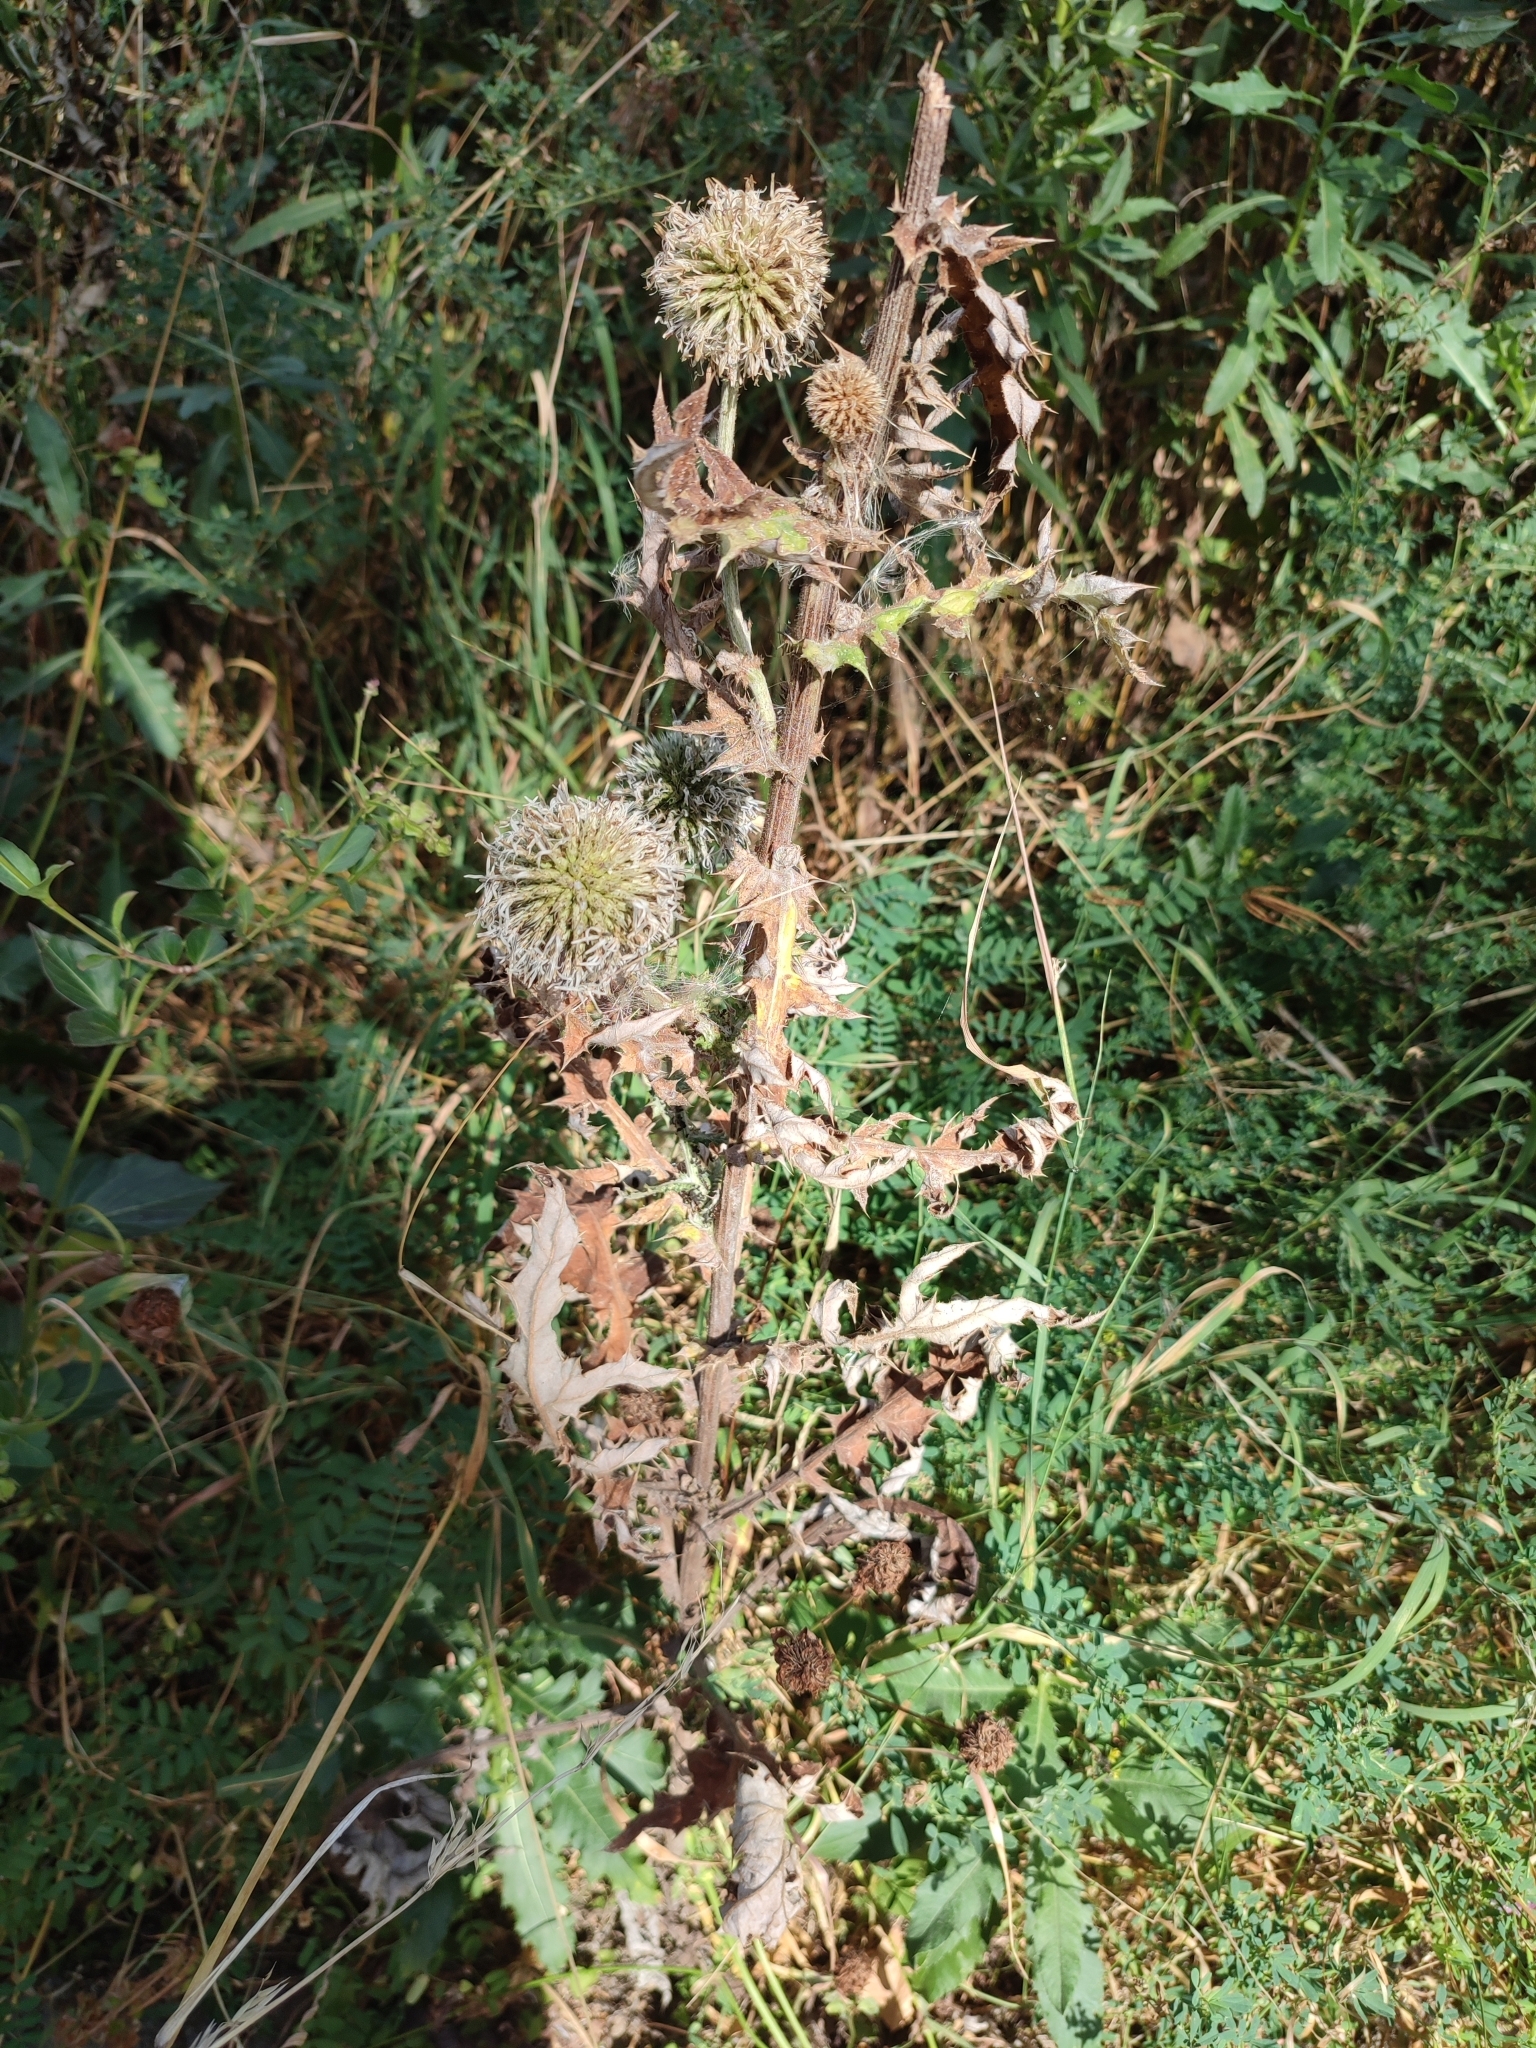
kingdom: Plantae
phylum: Tracheophyta
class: Magnoliopsida
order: Asterales
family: Asteraceae
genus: Echinops
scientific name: Echinops sphaerocephalus
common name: Glandular globe-thistle
